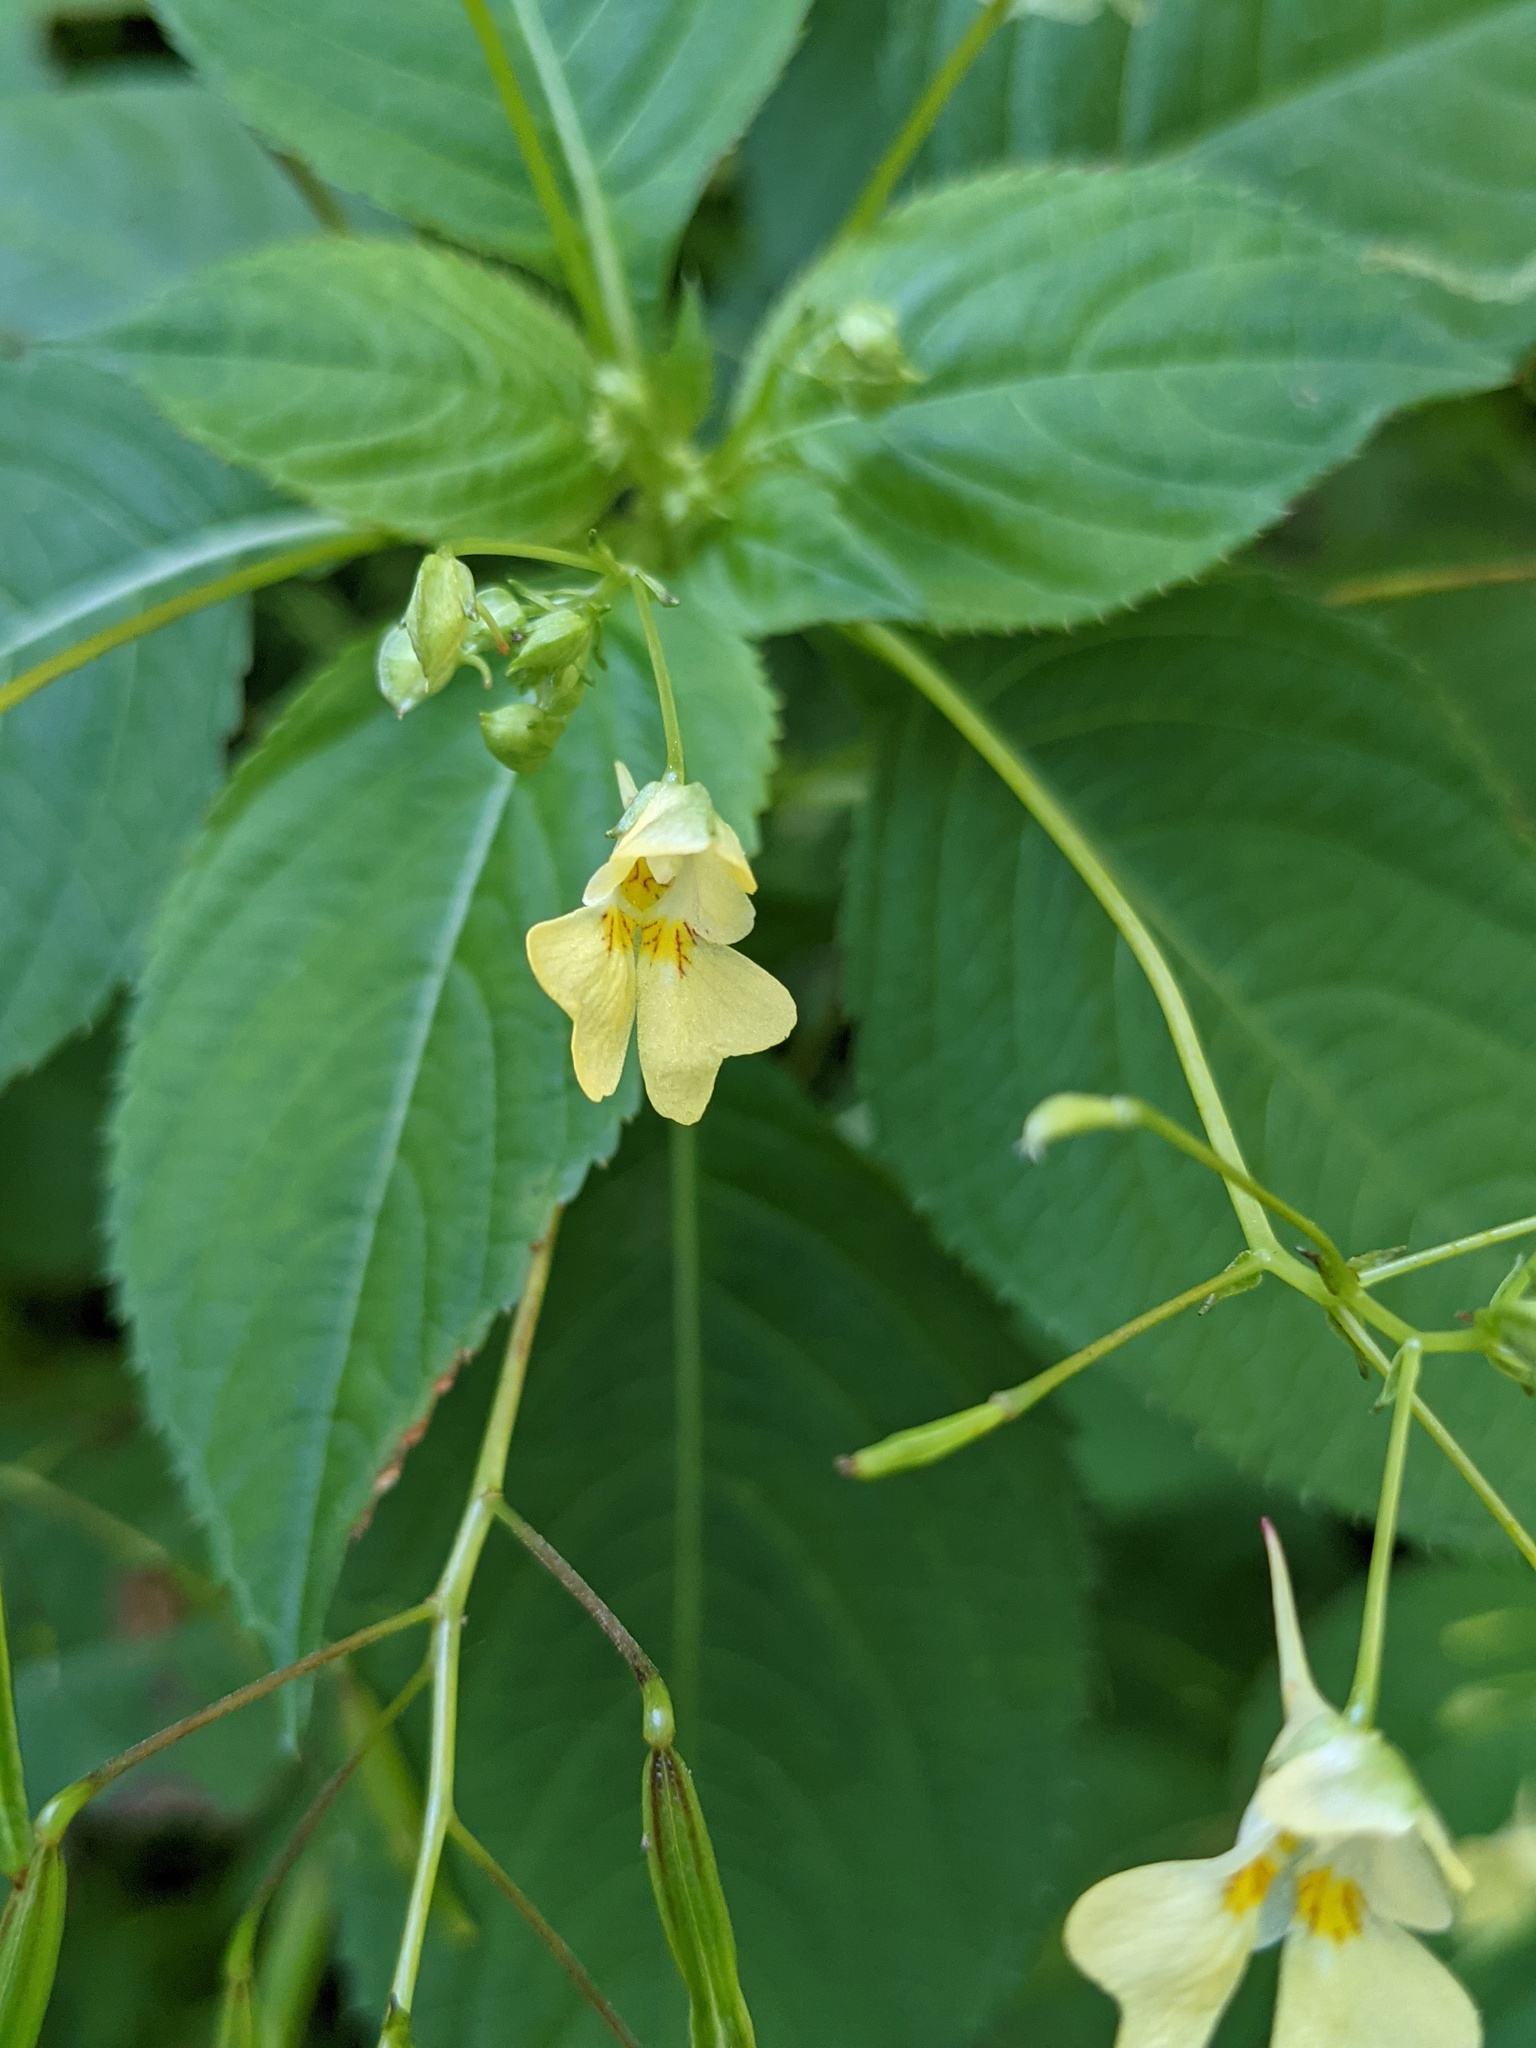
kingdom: Plantae
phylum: Tracheophyta
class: Magnoliopsida
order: Ericales
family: Balsaminaceae
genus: Impatiens
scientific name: Impatiens parviflora
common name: Small balsam
